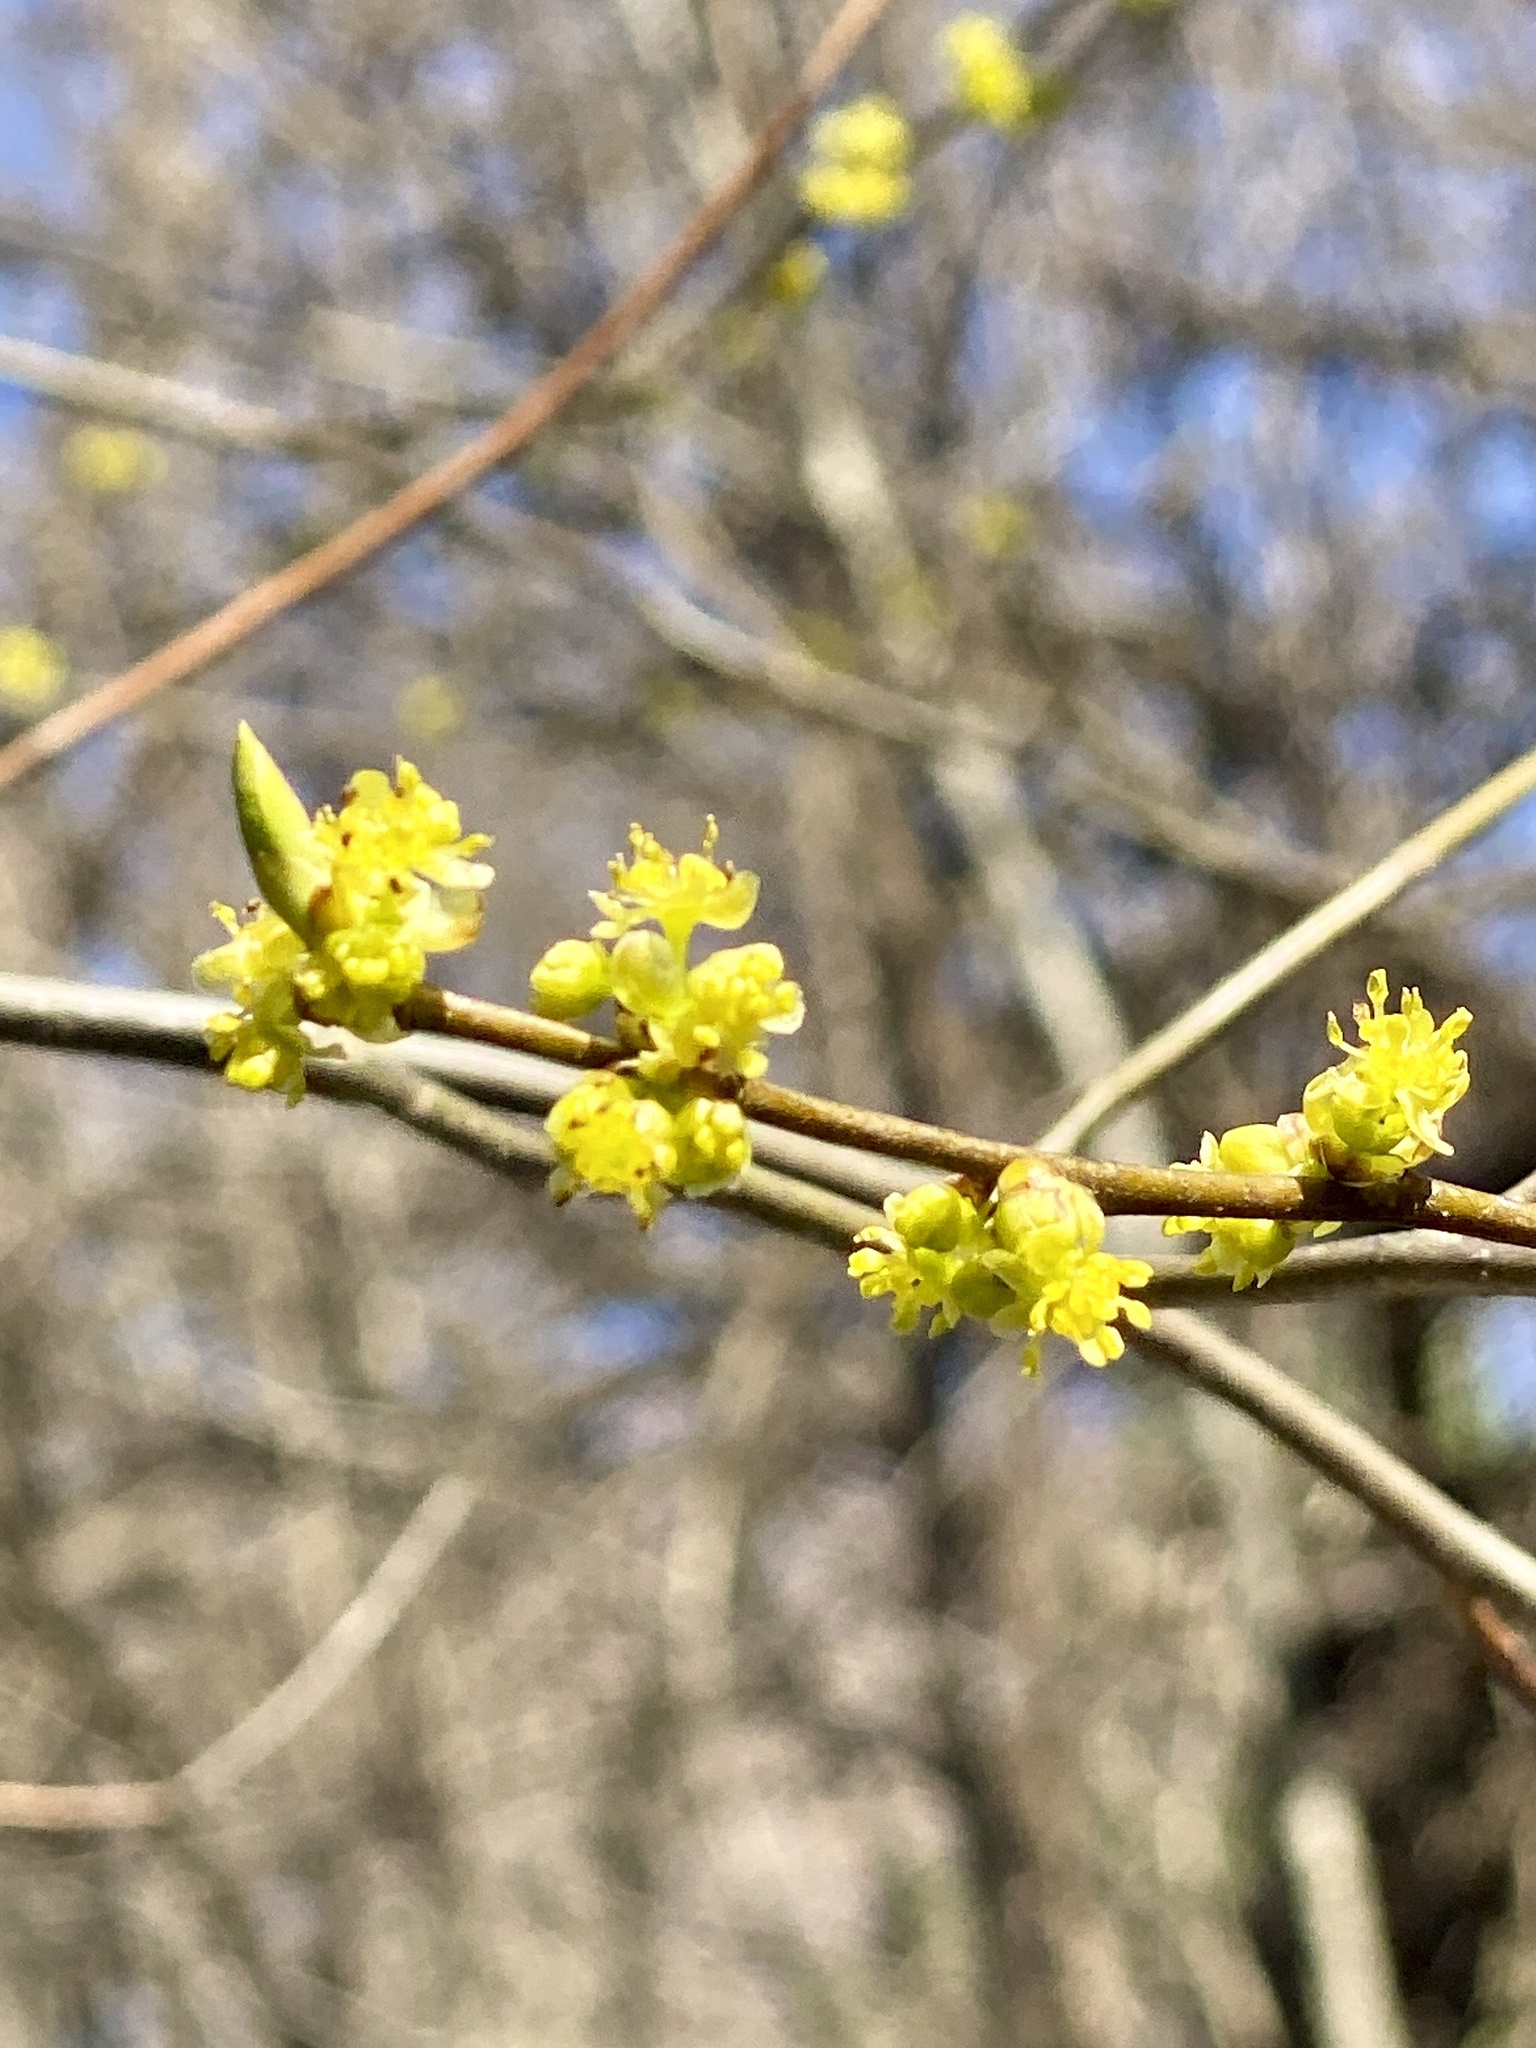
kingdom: Plantae
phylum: Tracheophyta
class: Magnoliopsida
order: Laurales
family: Lauraceae
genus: Lindera
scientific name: Lindera benzoin
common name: Spicebush
